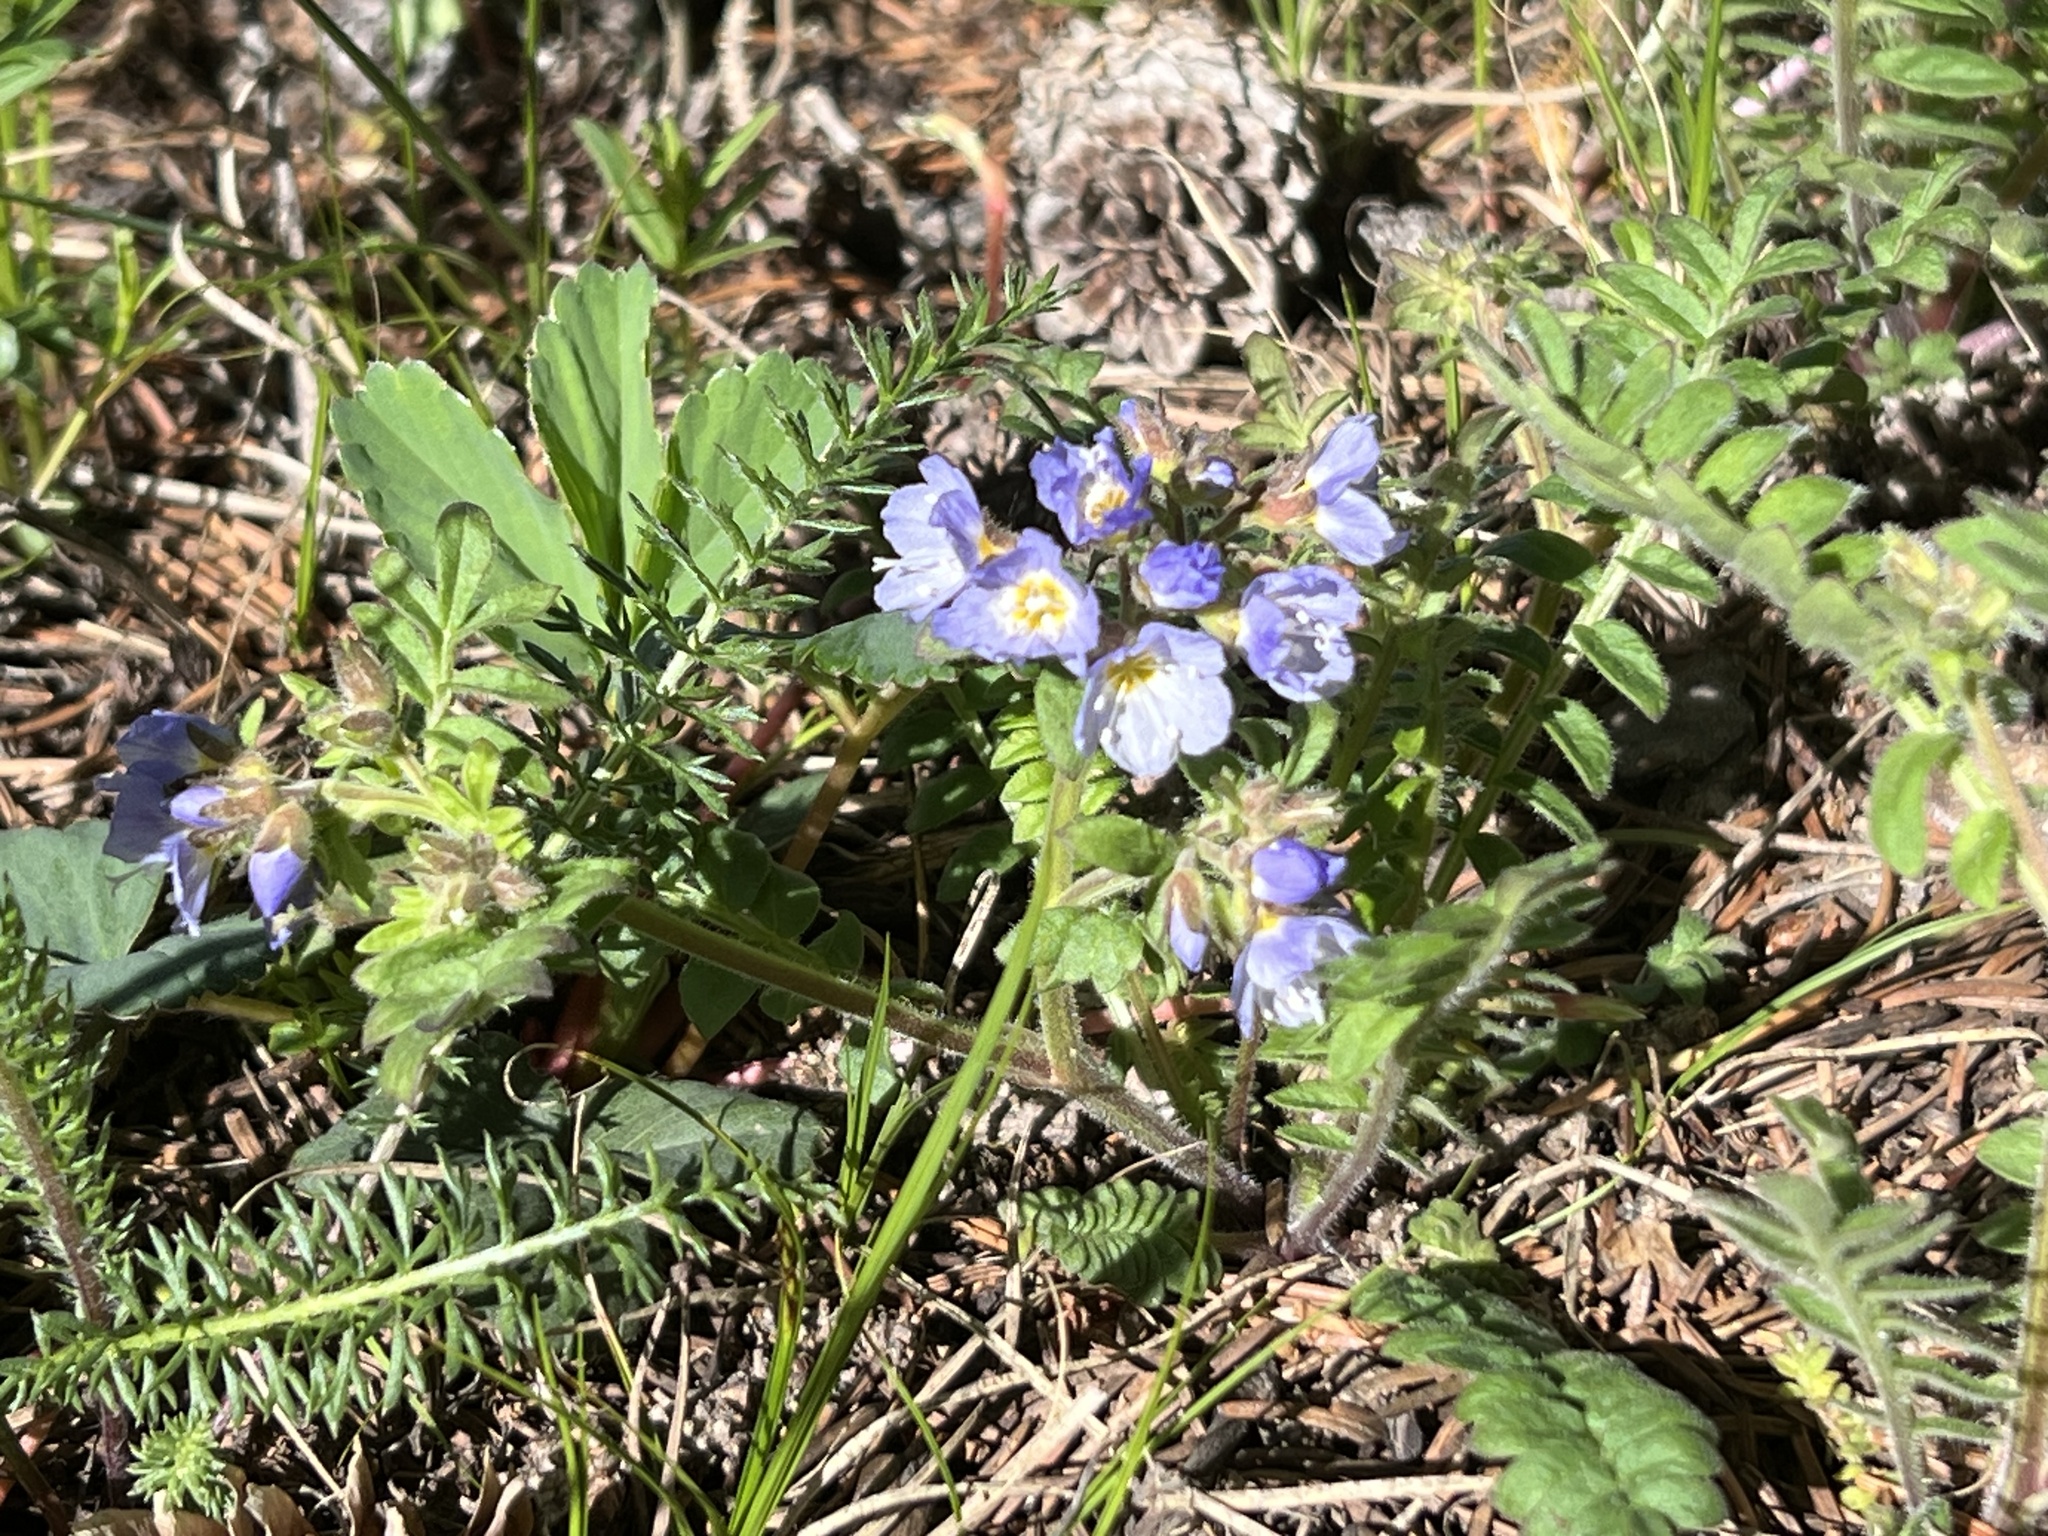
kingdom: Plantae
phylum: Tracheophyta
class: Magnoliopsida
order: Ericales
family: Polemoniaceae
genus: Polemonium
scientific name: Polemonium pulcherrimum
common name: Short jacob's-ladder
